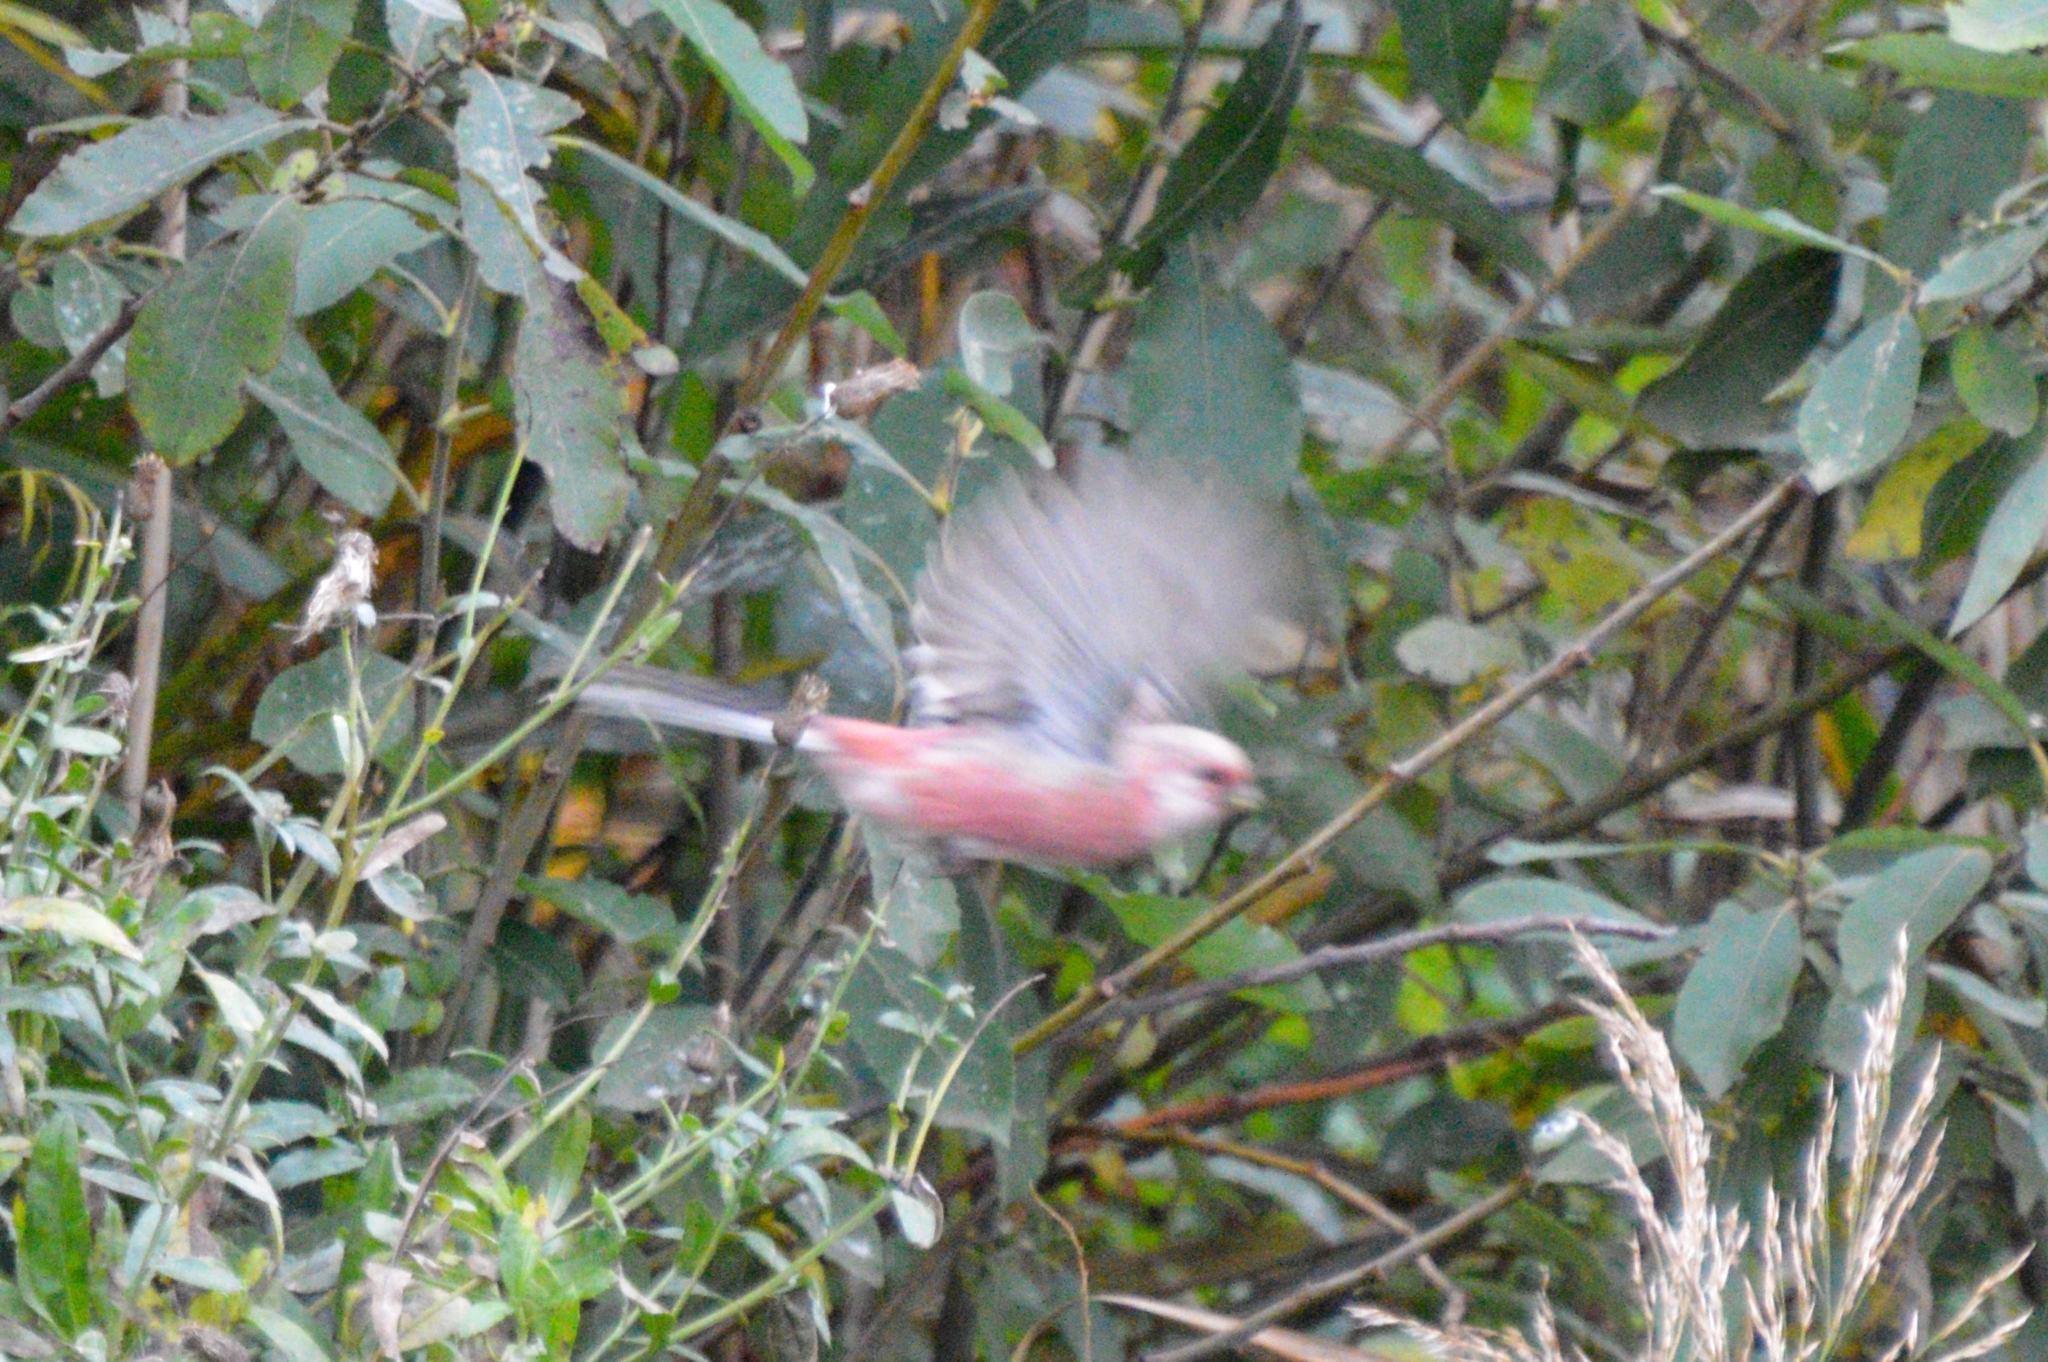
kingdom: Animalia
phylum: Chordata
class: Aves
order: Passeriformes
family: Fringillidae
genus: Carpodacus
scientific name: Carpodacus sibiricus
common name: Long-tailed rosefinch
